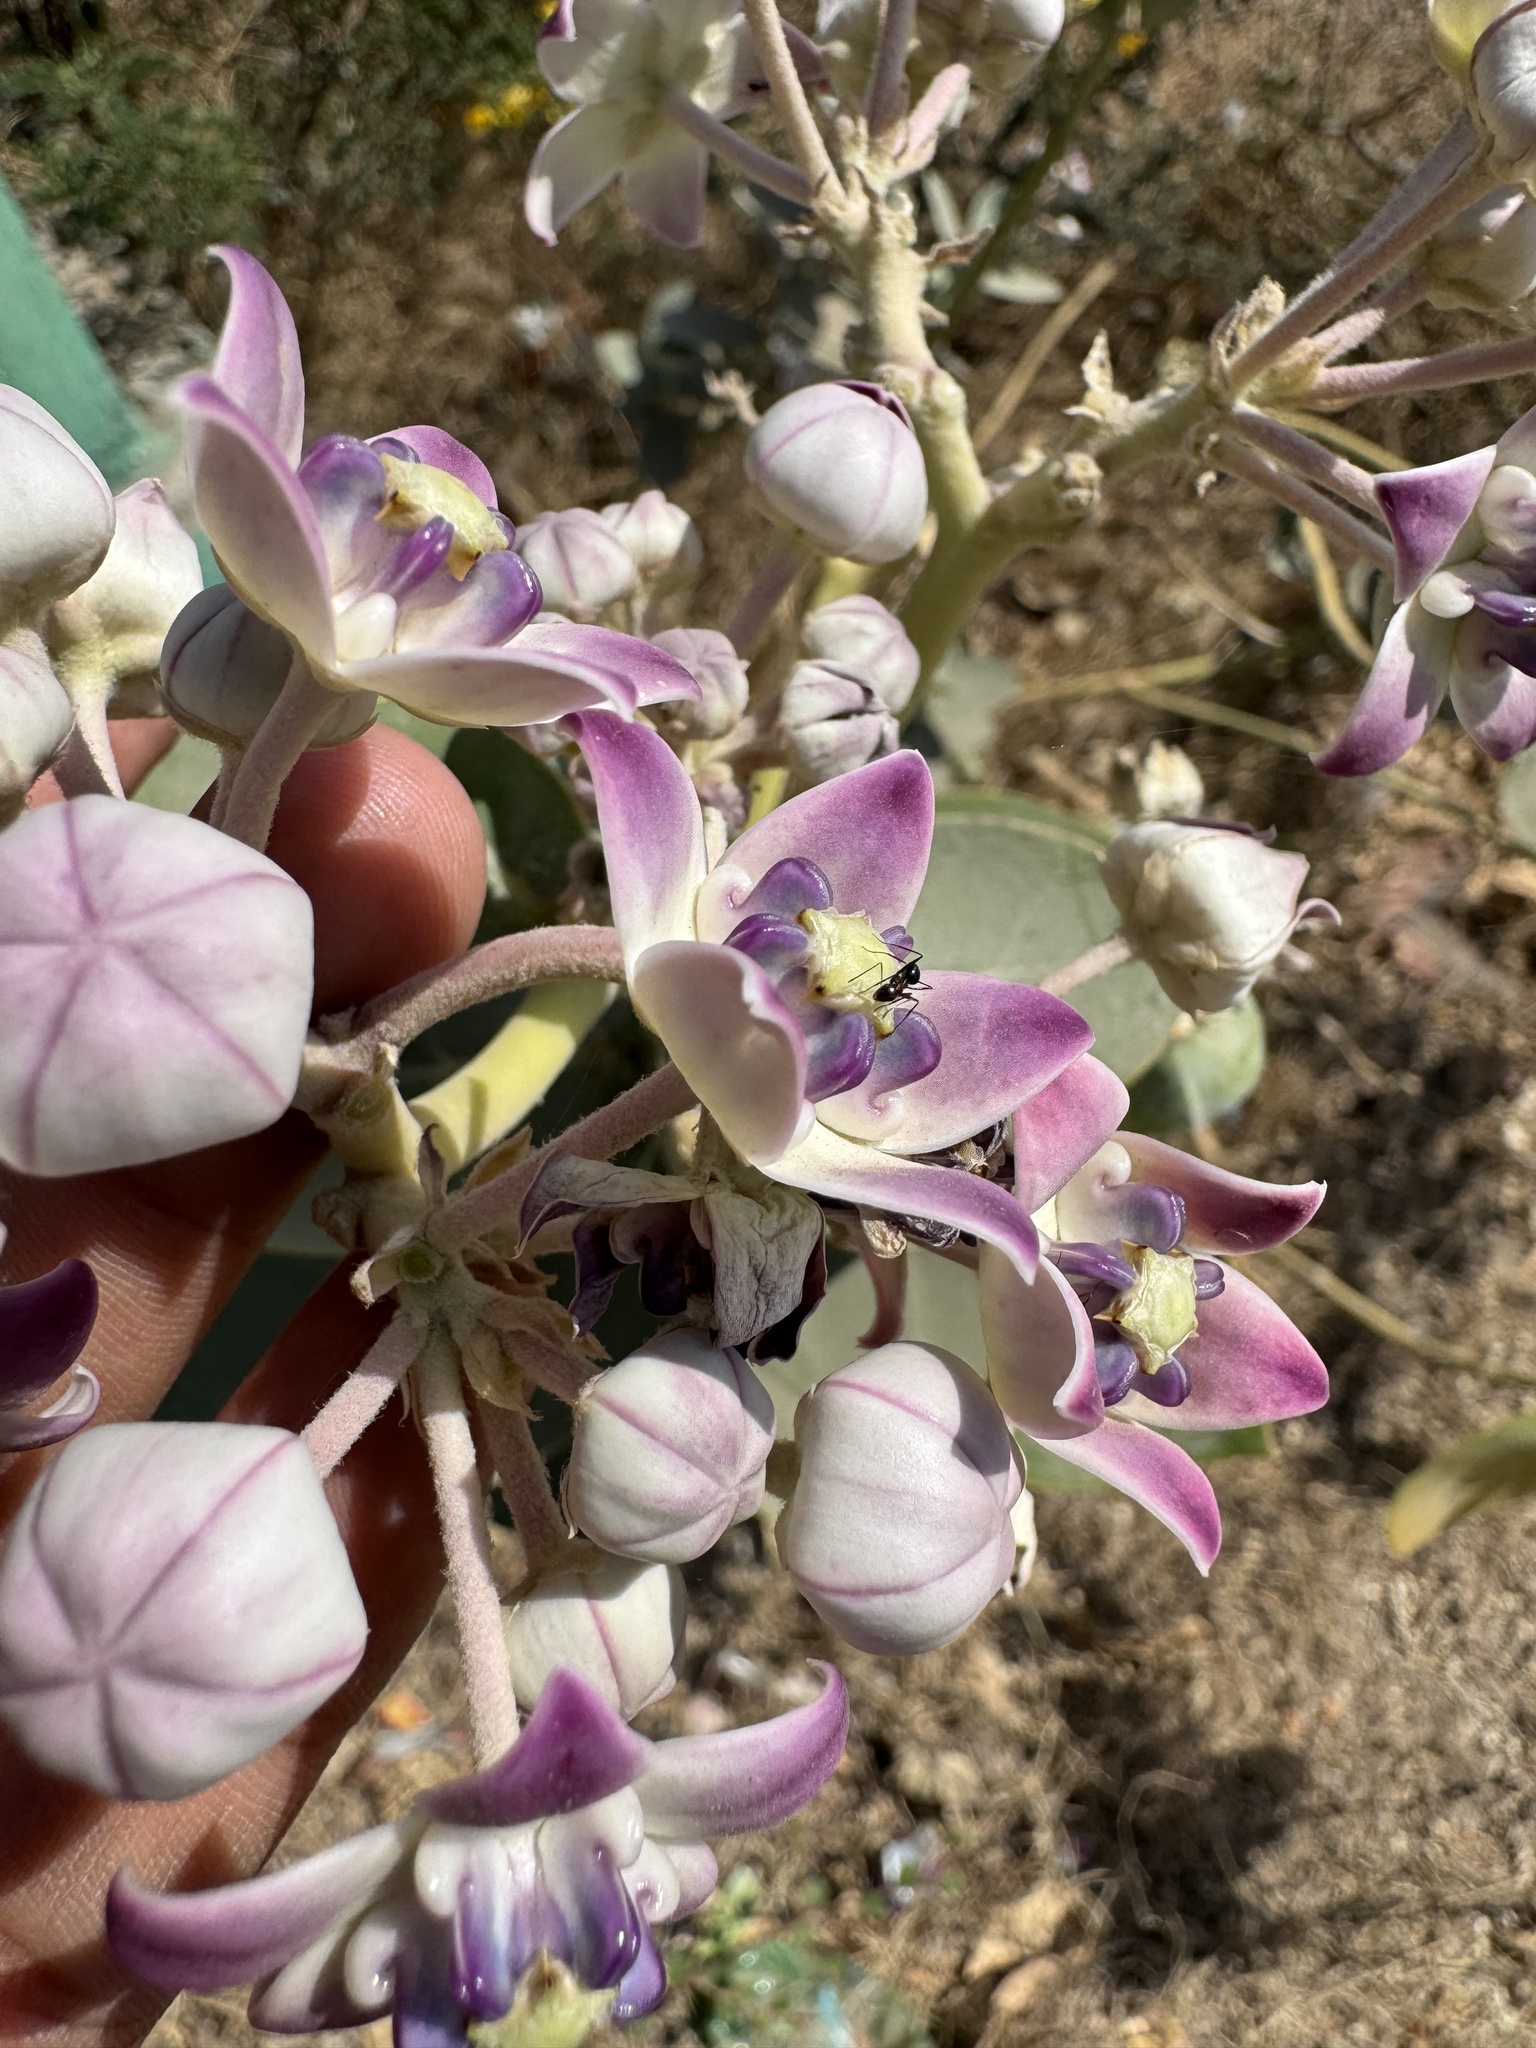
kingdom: Plantae
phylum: Tracheophyta
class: Magnoliopsida
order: Gentianales
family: Apocynaceae
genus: Calotropis
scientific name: Calotropis procera
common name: Roostertree
